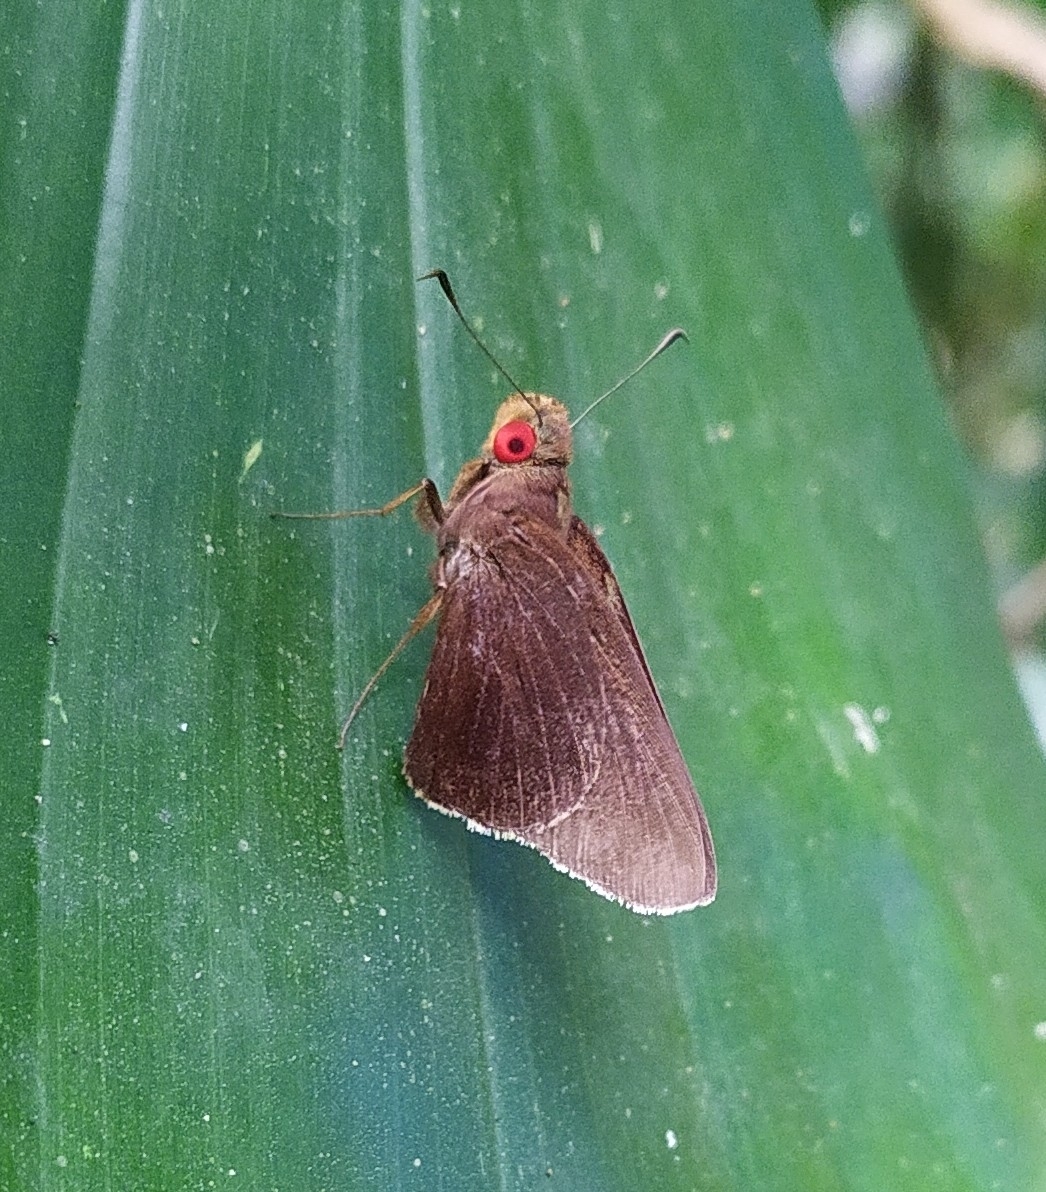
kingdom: Animalia
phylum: Arthropoda
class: Insecta
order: Lepidoptera
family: Hesperiidae
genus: Matapa
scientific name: Matapa aria
